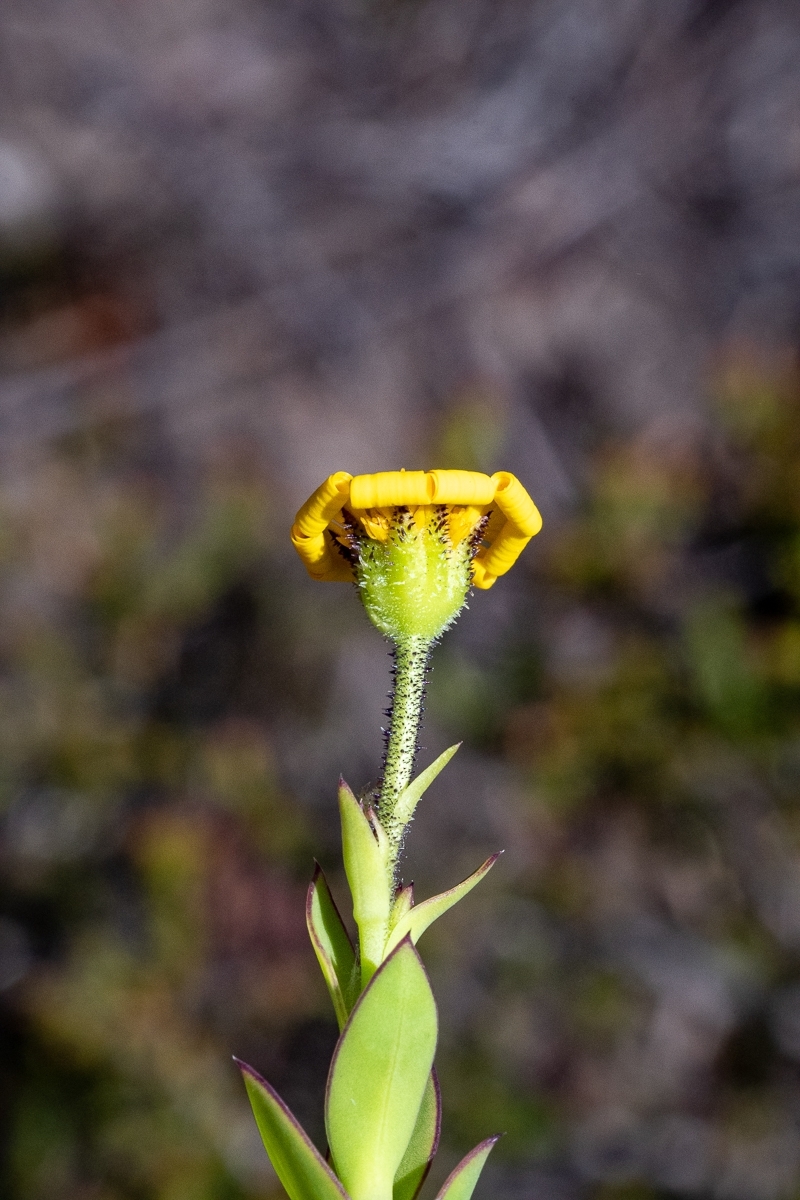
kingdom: Plantae
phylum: Tracheophyta
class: Magnoliopsida
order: Asterales
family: Asteraceae
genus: Osteospermum
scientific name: Osteospermum rotundifolium
